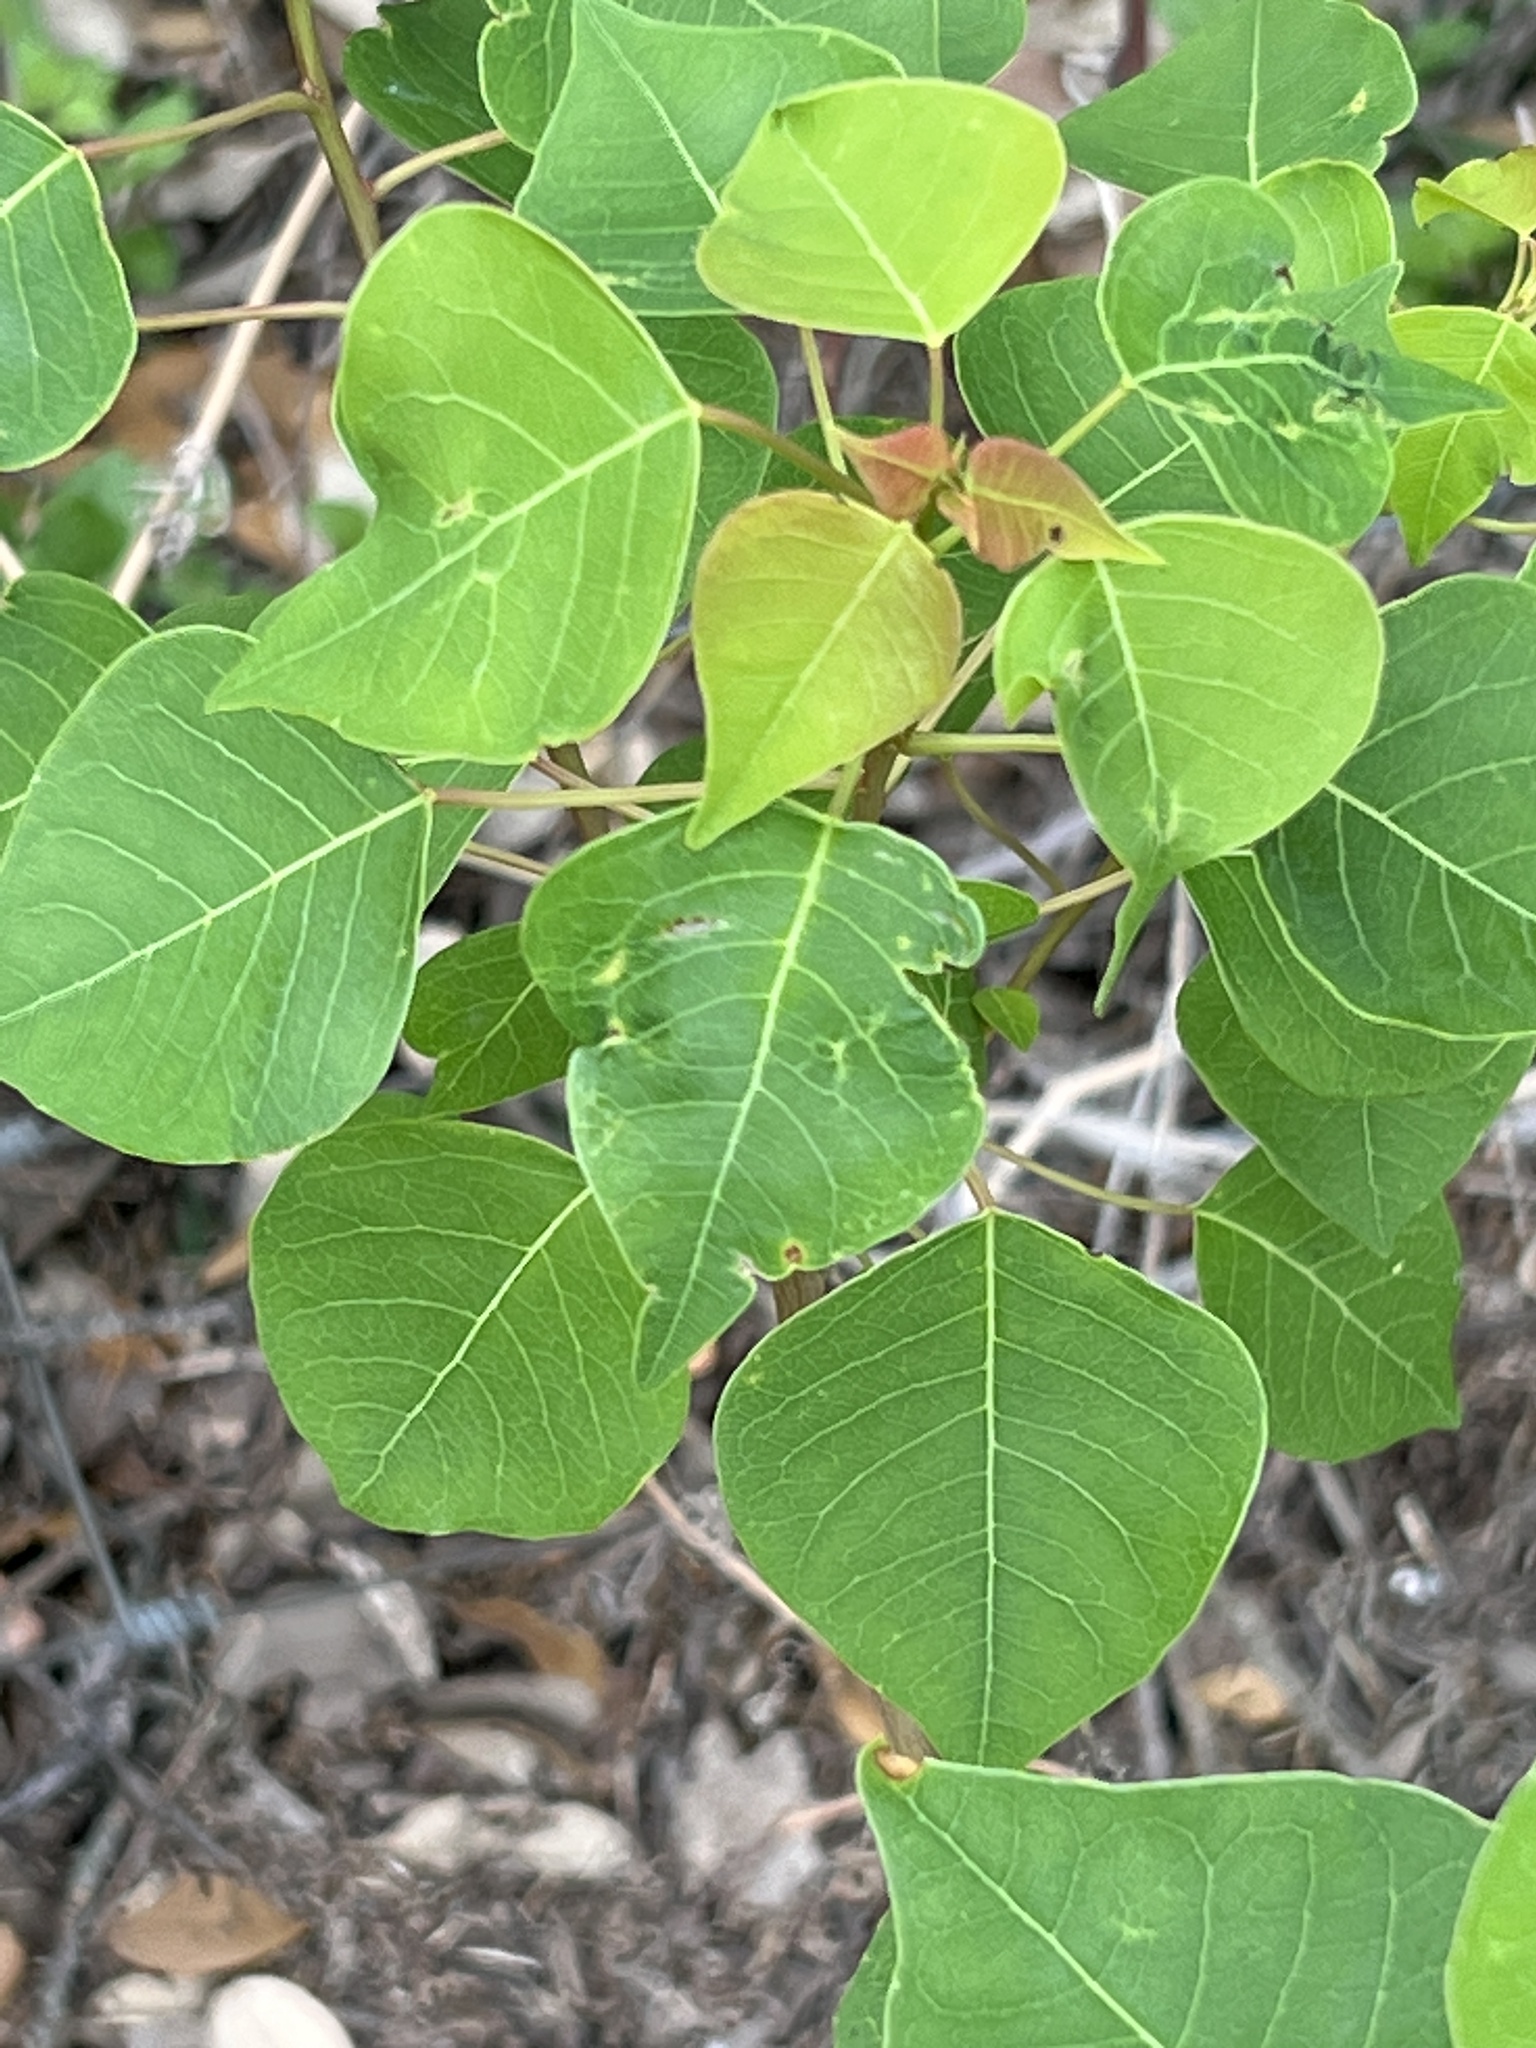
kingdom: Plantae
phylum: Tracheophyta
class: Magnoliopsida
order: Malpighiales
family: Euphorbiaceae
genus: Triadica
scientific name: Triadica sebifera
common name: Chinese tallow
